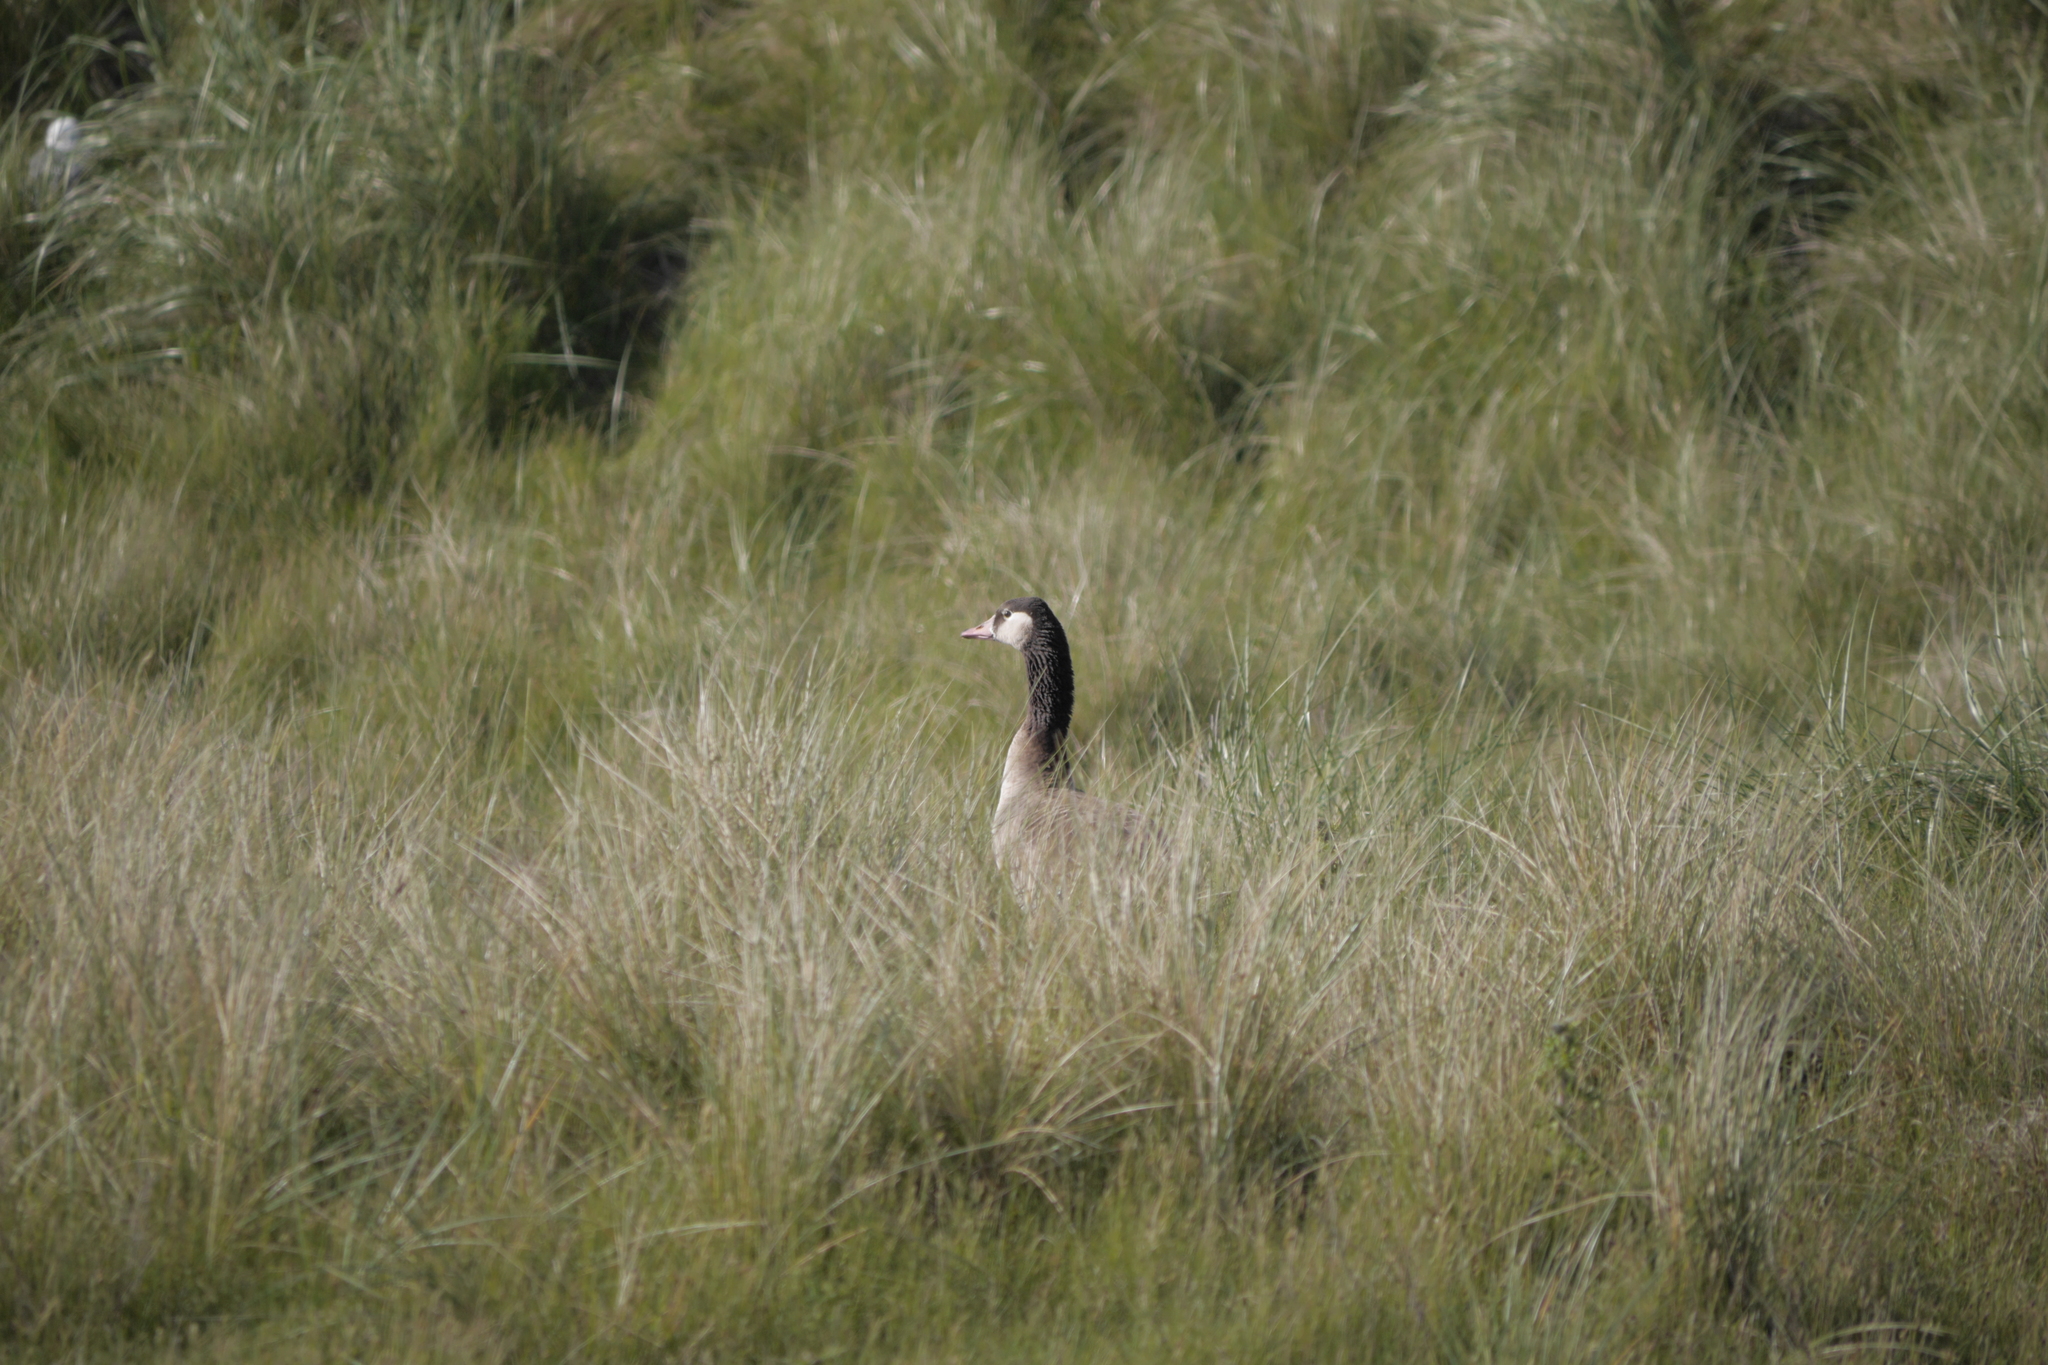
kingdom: Animalia
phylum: Chordata
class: Aves
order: Anseriformes
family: Anatidae
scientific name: Anatidae
